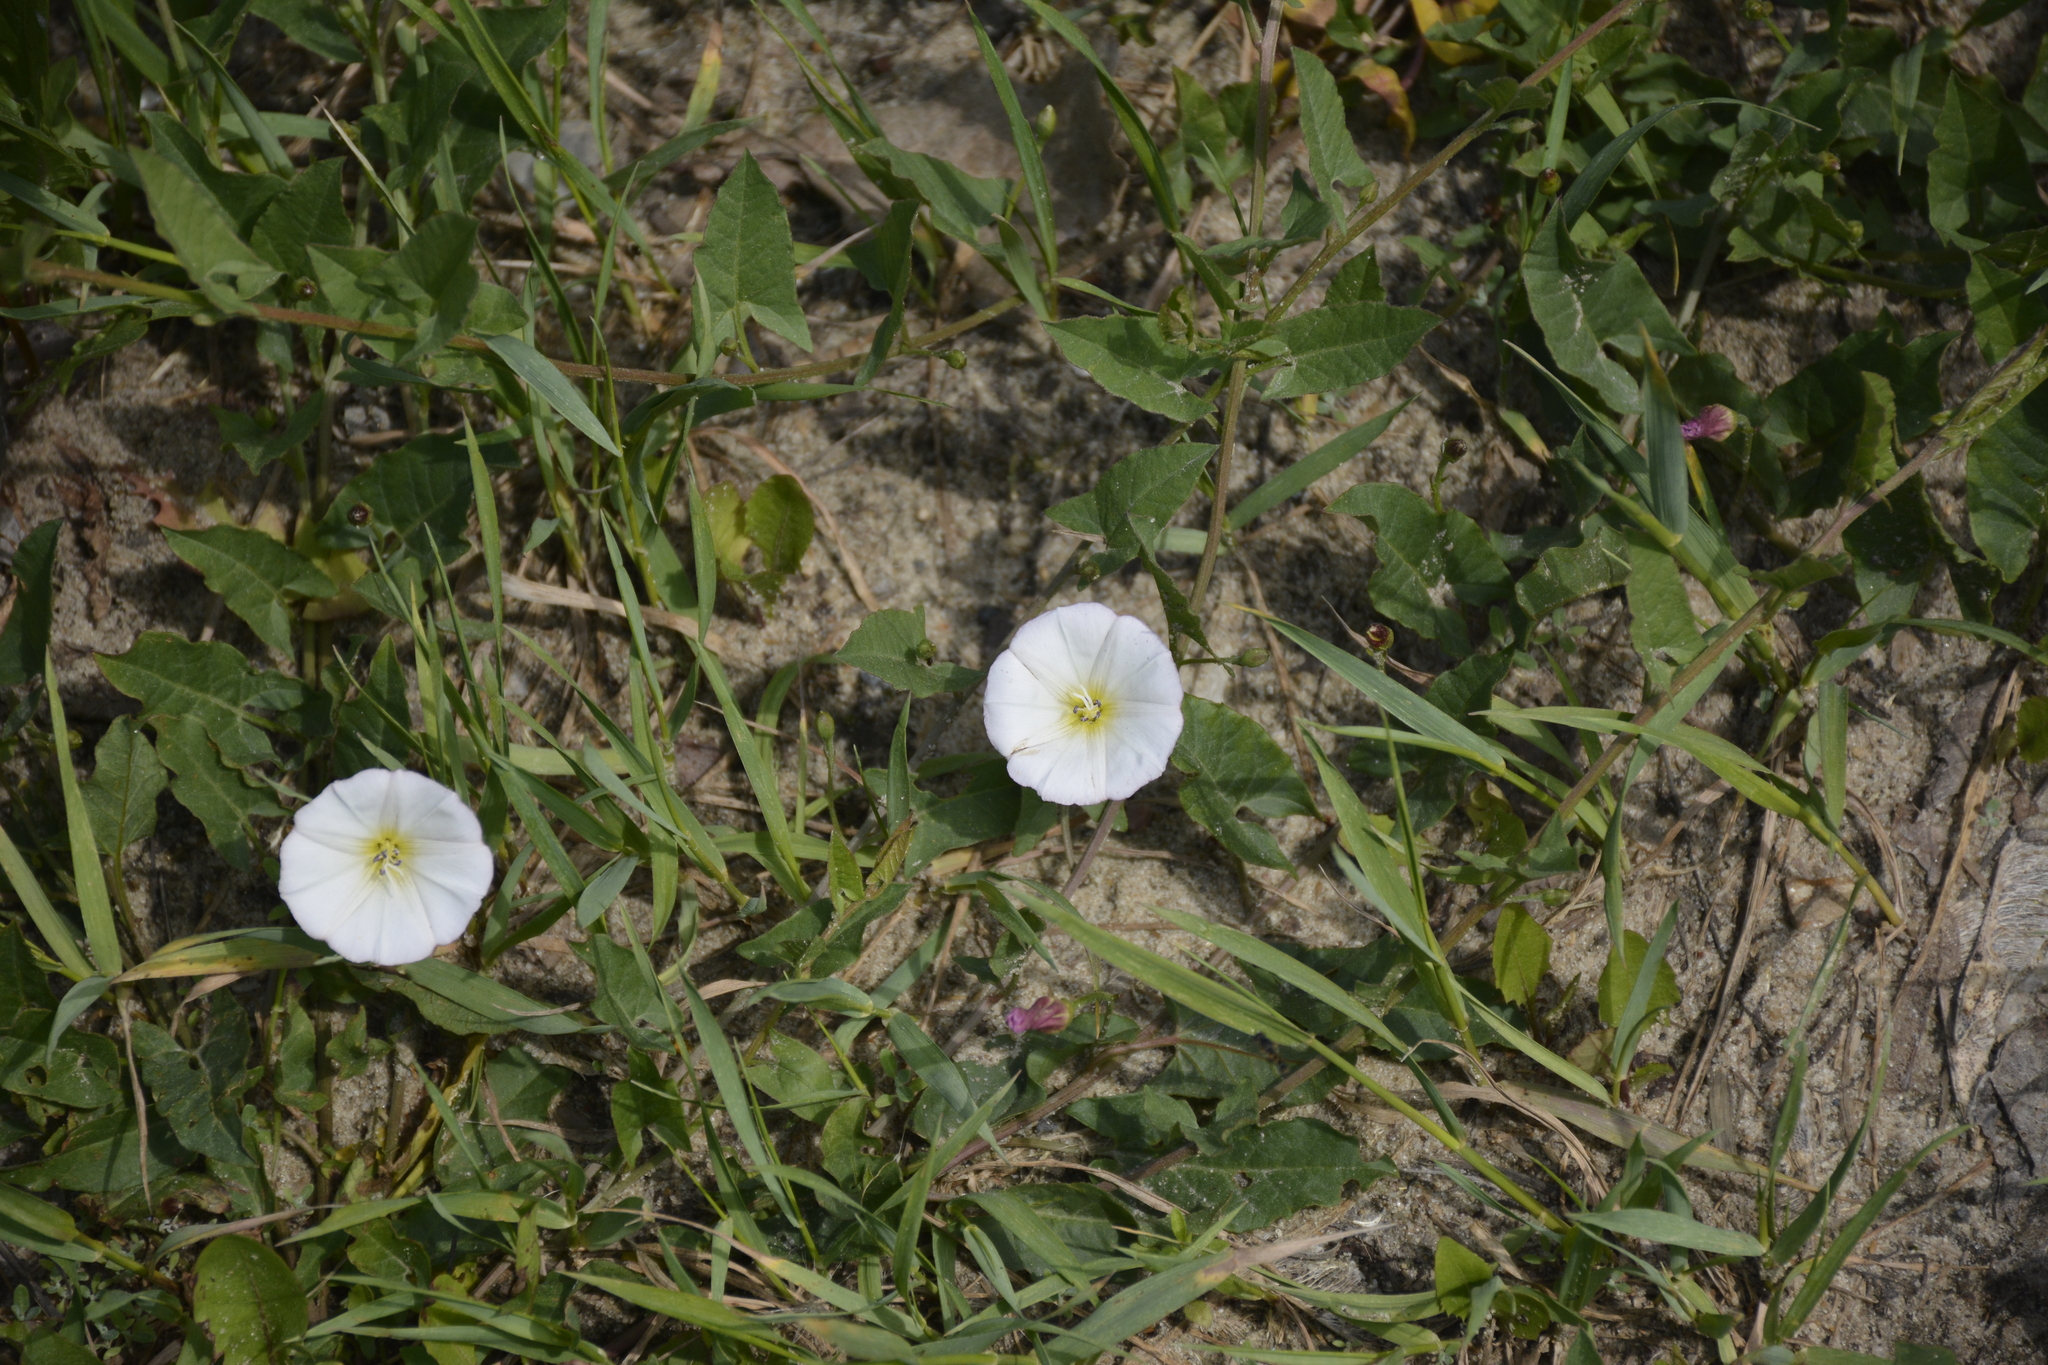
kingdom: Plantae
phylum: Tracheophyta
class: Magnoliopsida
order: Solanales
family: Convolvulaceae
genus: Convolvulus
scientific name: Convolvulus arvensis
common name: Field bindweed
